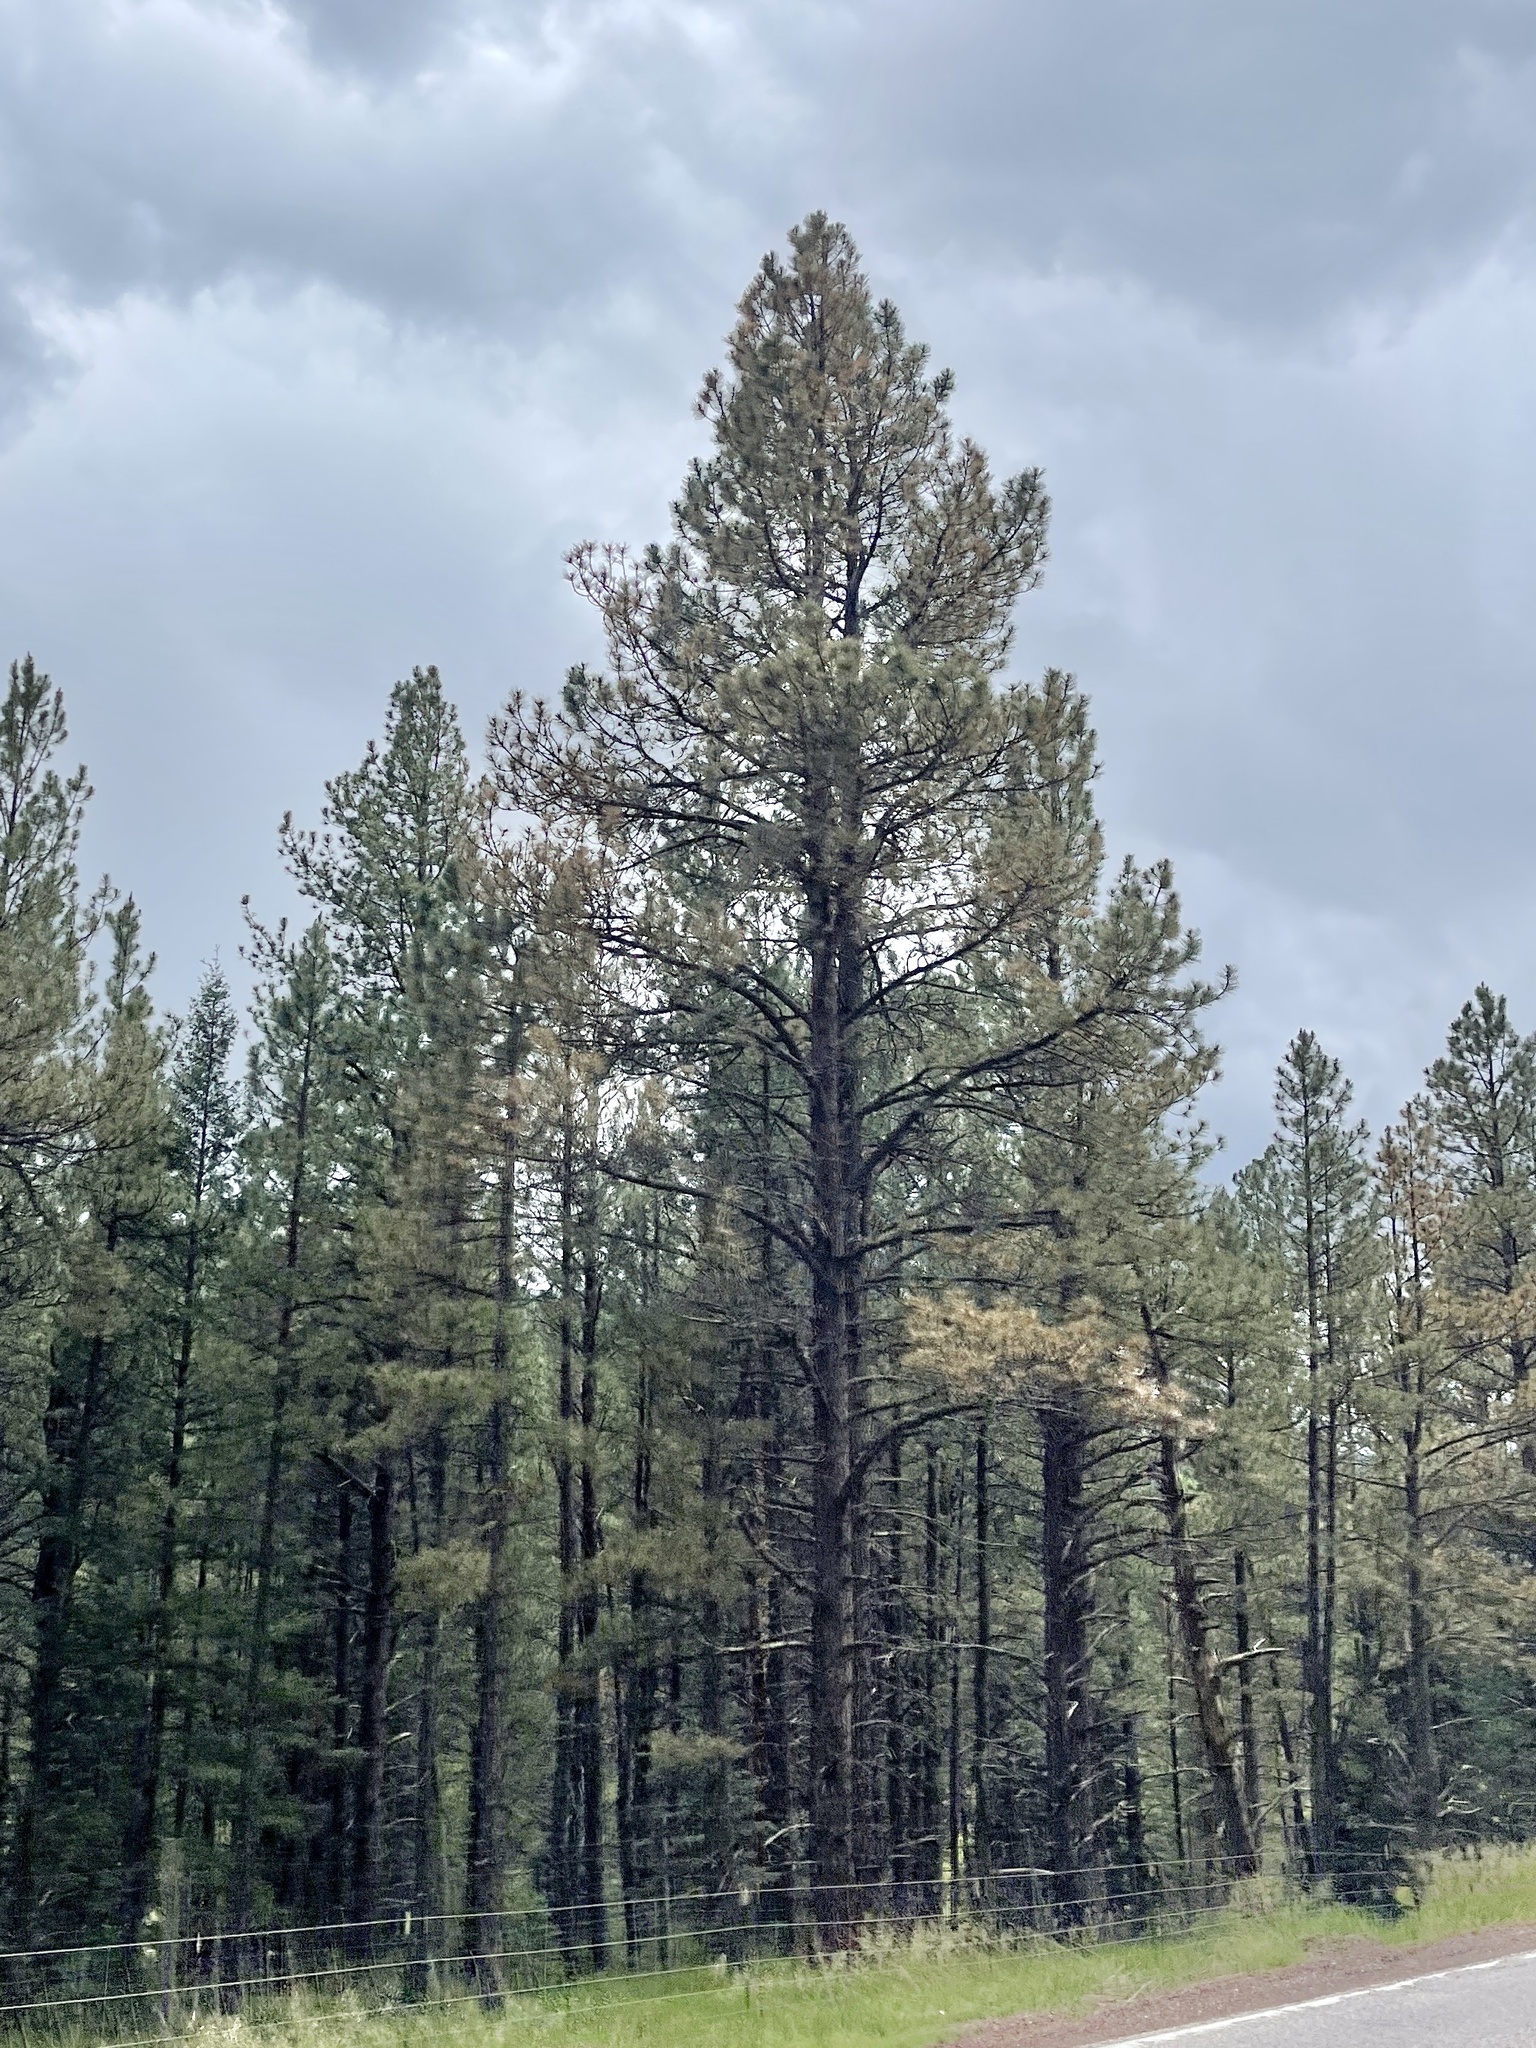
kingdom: Plantae
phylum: Tracheophyta
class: Pinopsida
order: Pinales
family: Pinaceae
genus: Pinus
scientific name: Pinus ponderosa
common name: Western yellow-pine
